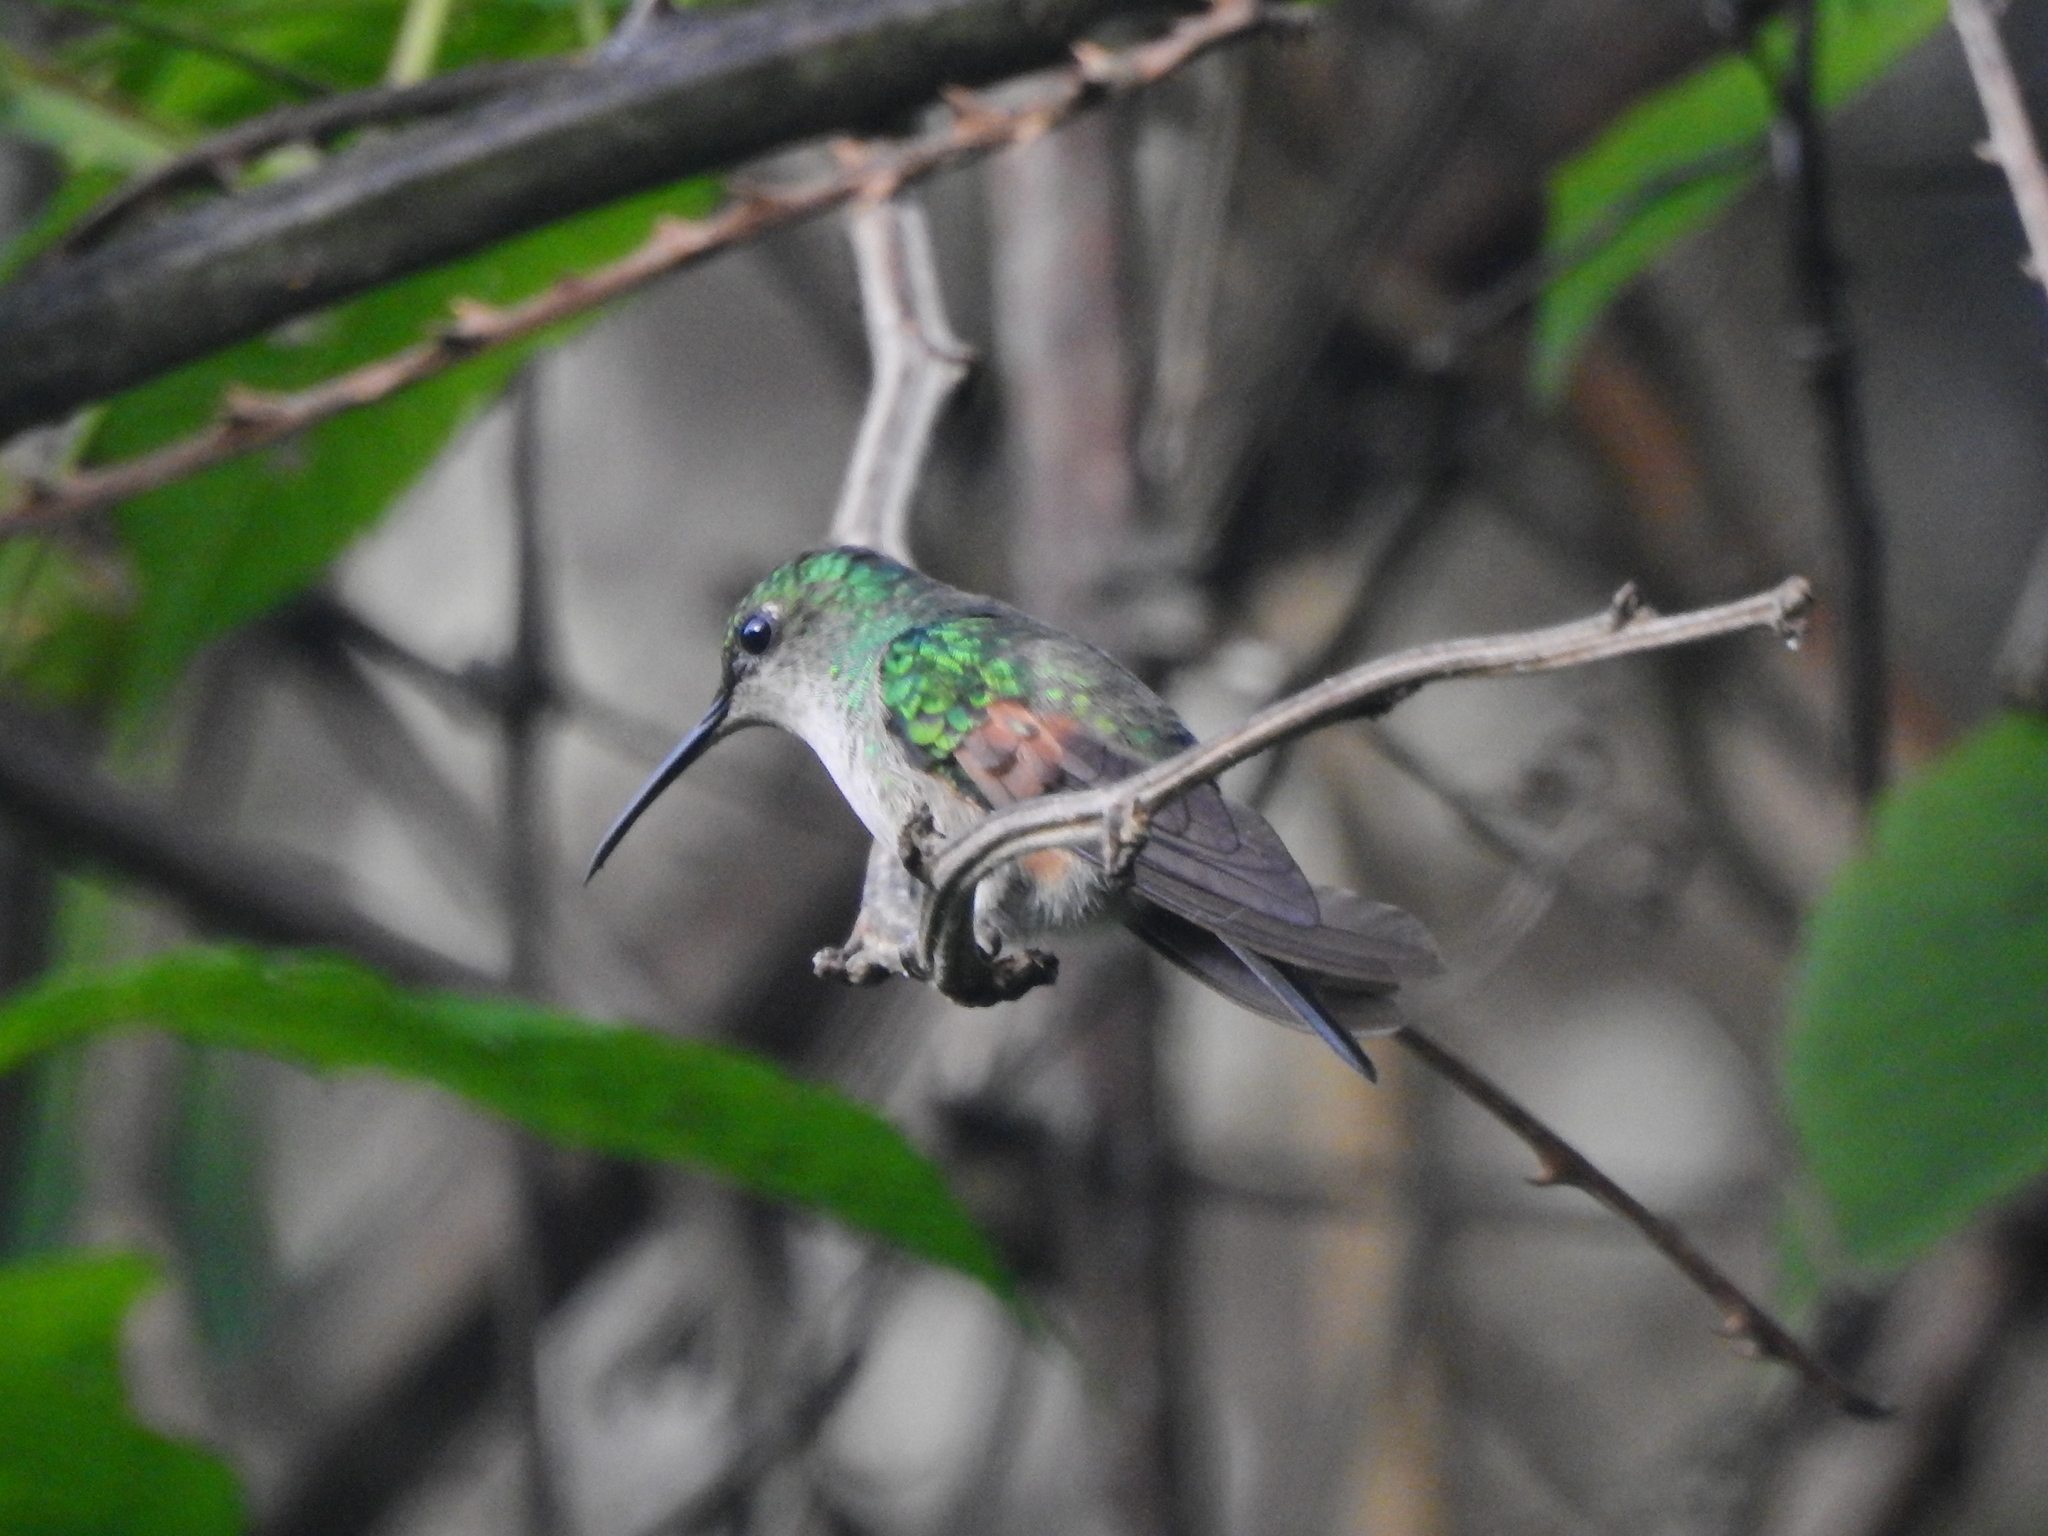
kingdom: Animalia
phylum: Chordata
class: Aves
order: Apodiformes
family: Trochilidae
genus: Pampa
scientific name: Pampa curvipennis
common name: Curve-winged sabrewing
